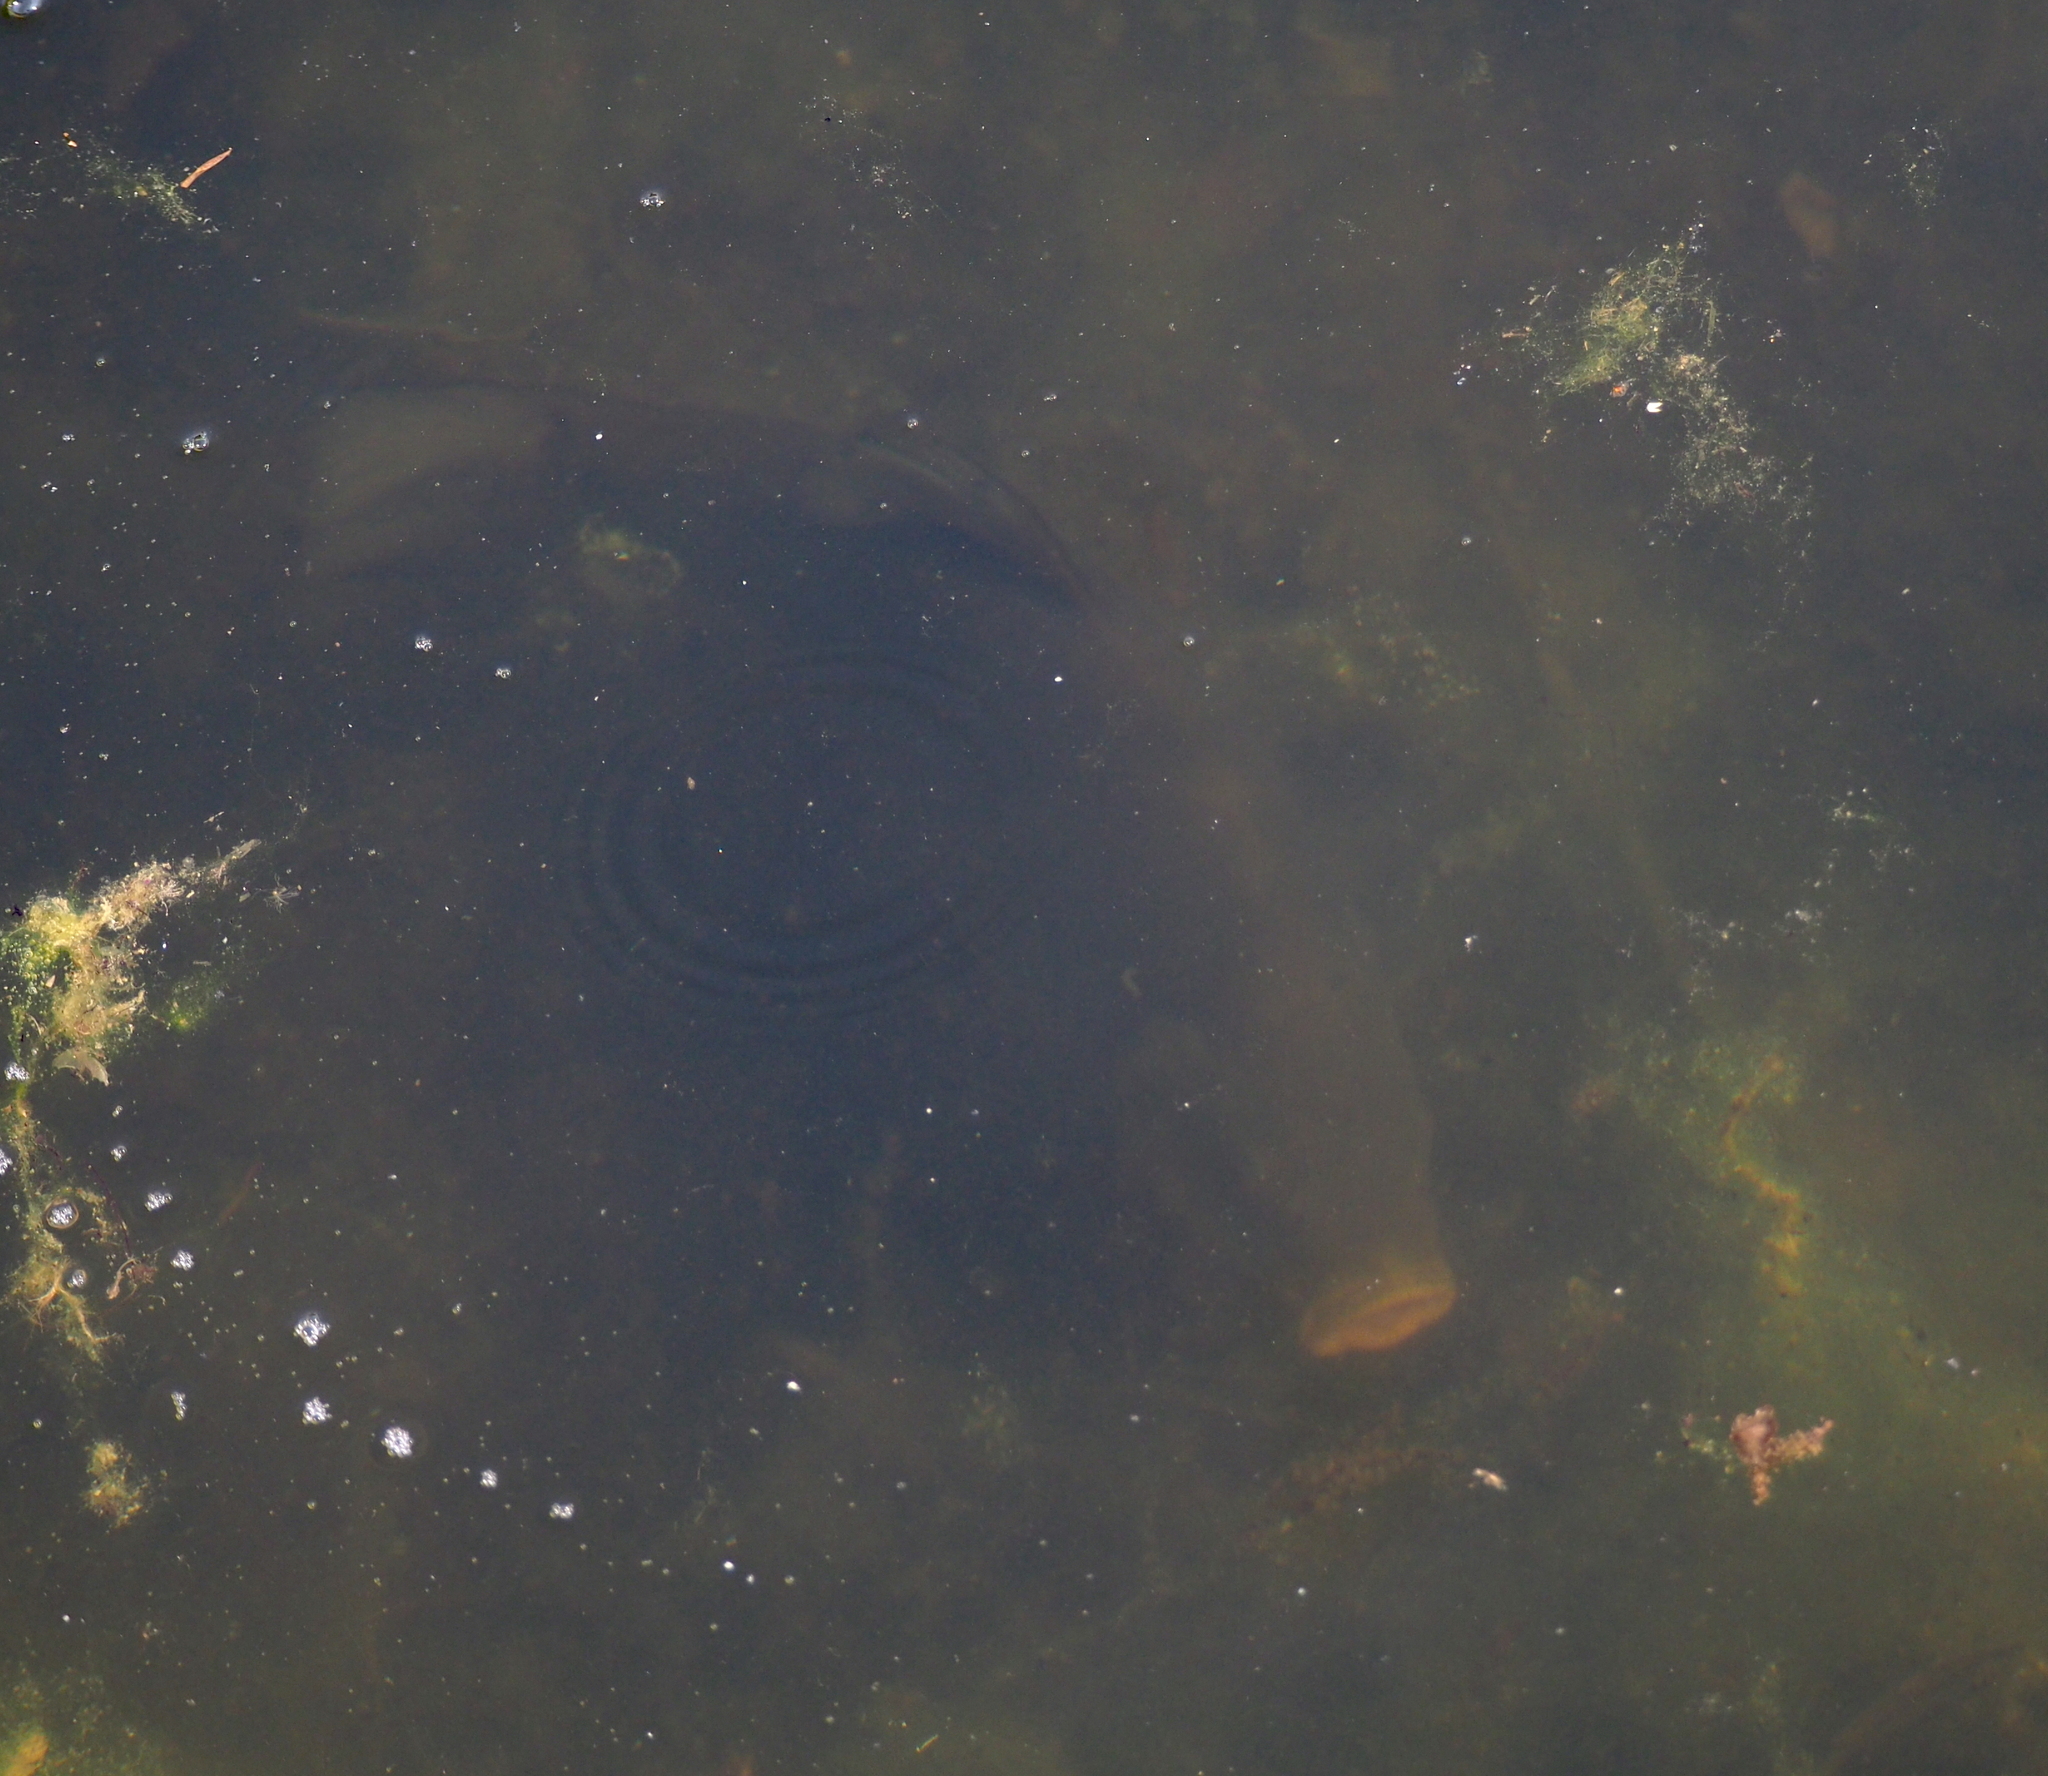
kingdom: Animalia
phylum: Chordata
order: Cypriniformes
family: Cyprinidae
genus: Tinca
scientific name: Tinca tinca
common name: Tench
